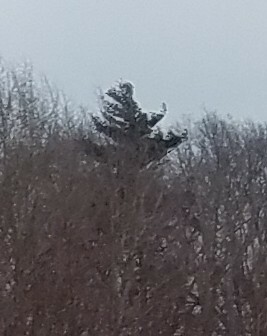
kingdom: Plantae
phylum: Tracheophyta
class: Pinopsida
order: Pinales
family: Pinaceae
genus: Pinus
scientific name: Pinus strobus
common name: Weymouth pine
